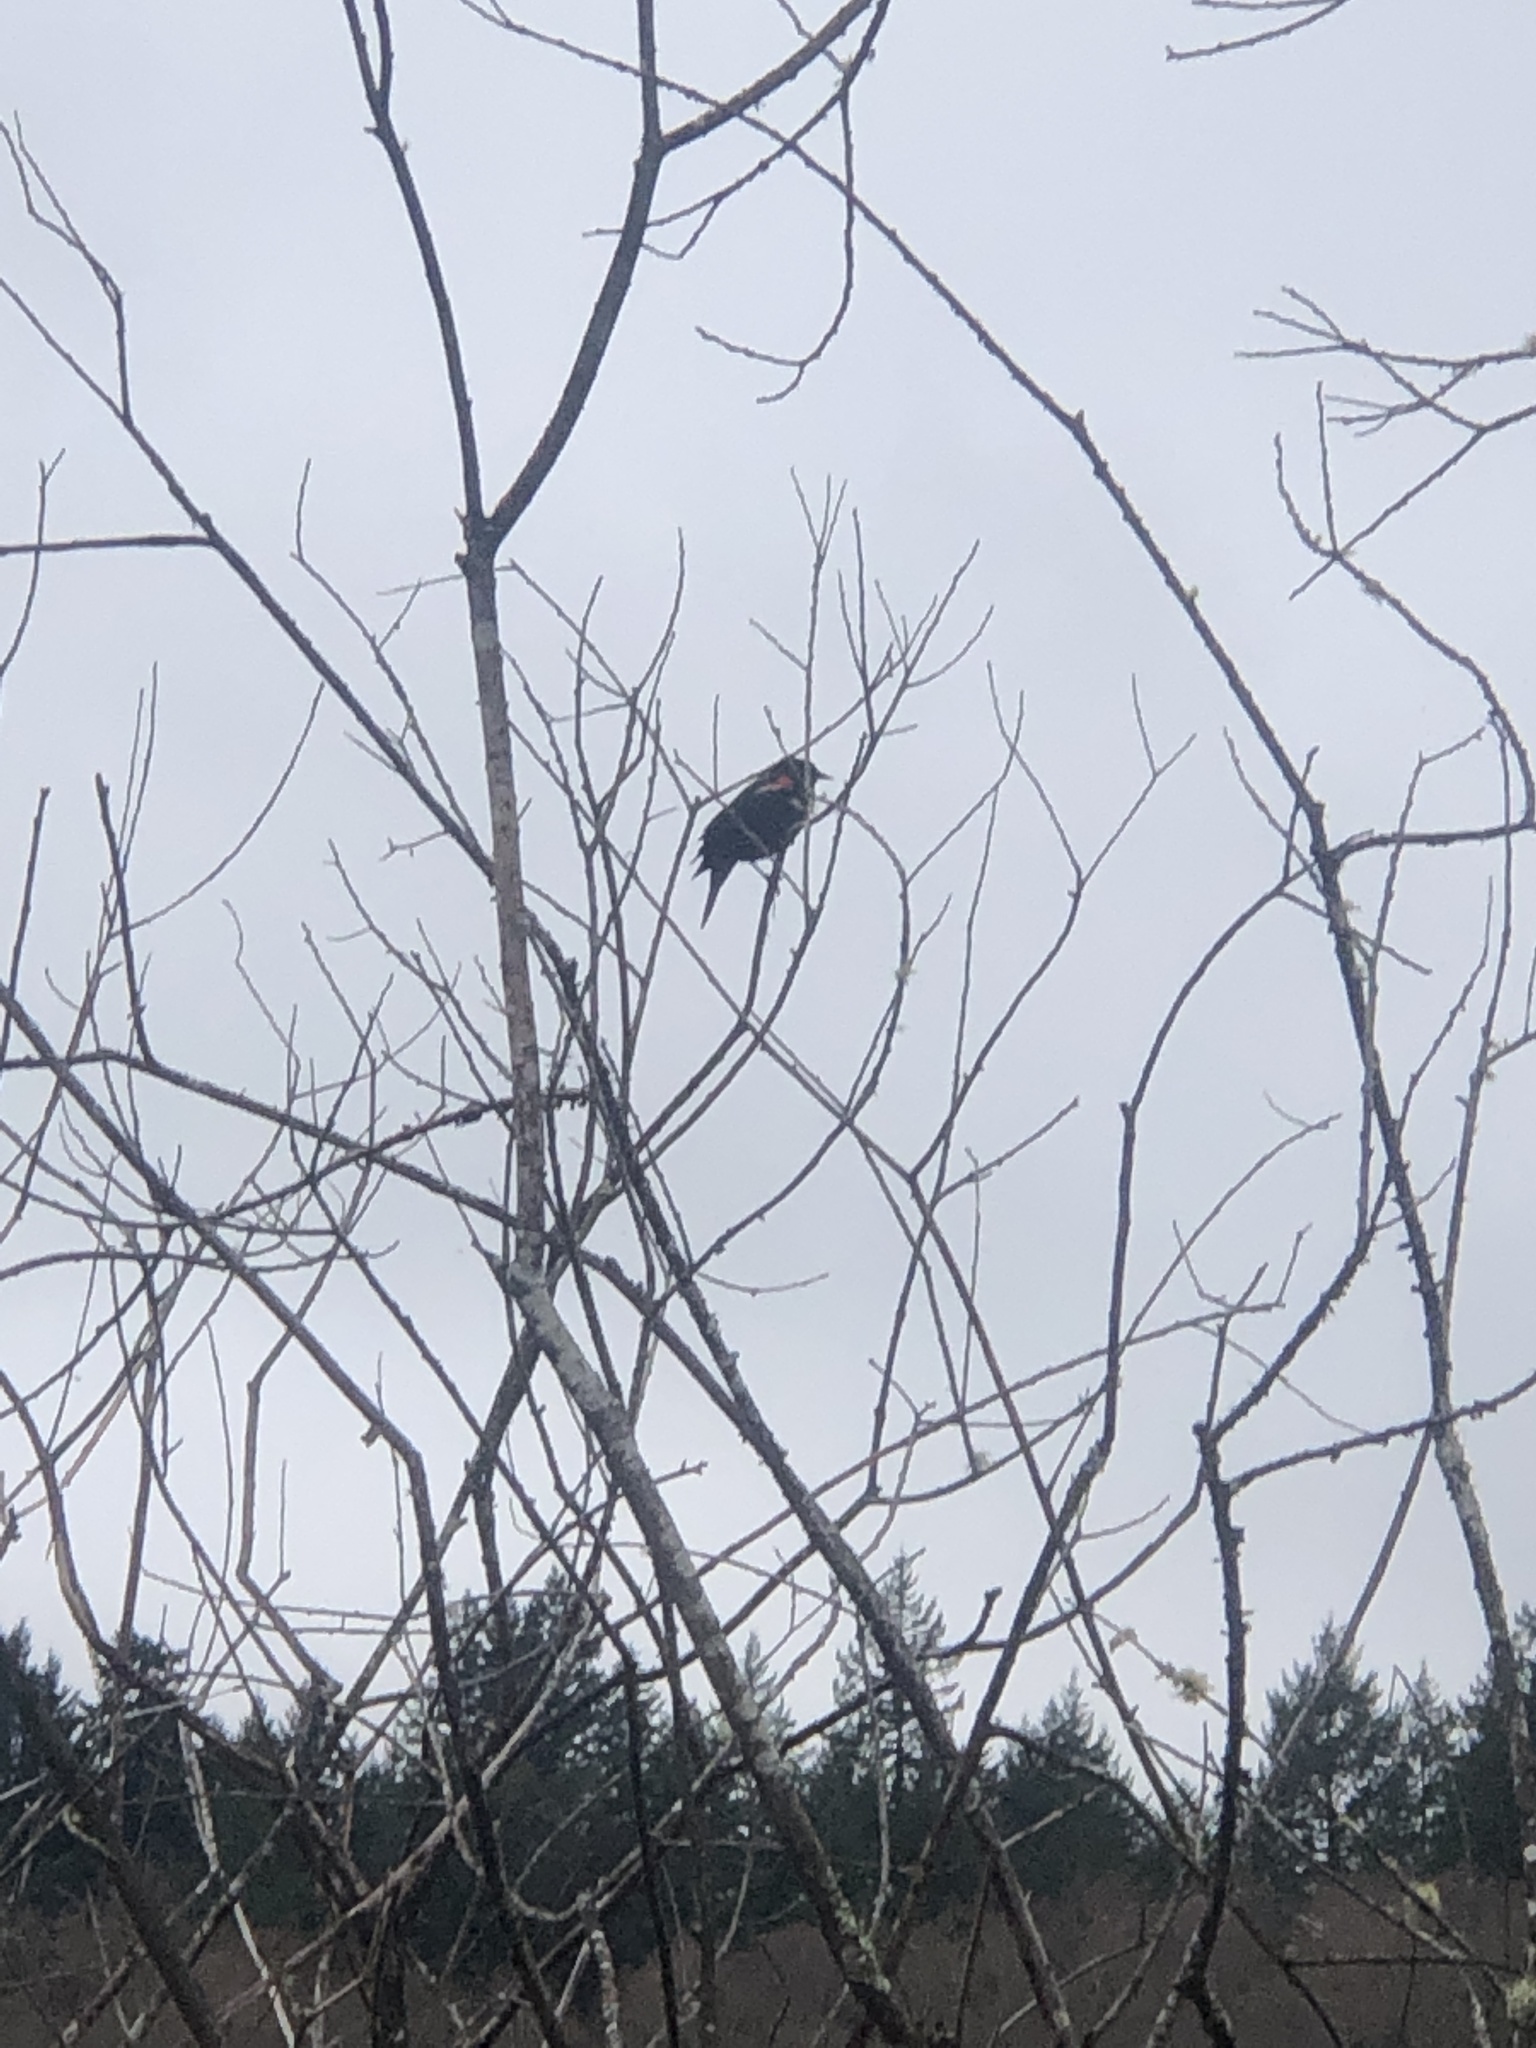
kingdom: Animalia
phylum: Chordata
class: Aves
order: Passeriformes
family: Icteridae
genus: Agelaius
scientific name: Agelaius phoeniceus
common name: Red-winged blackbird
